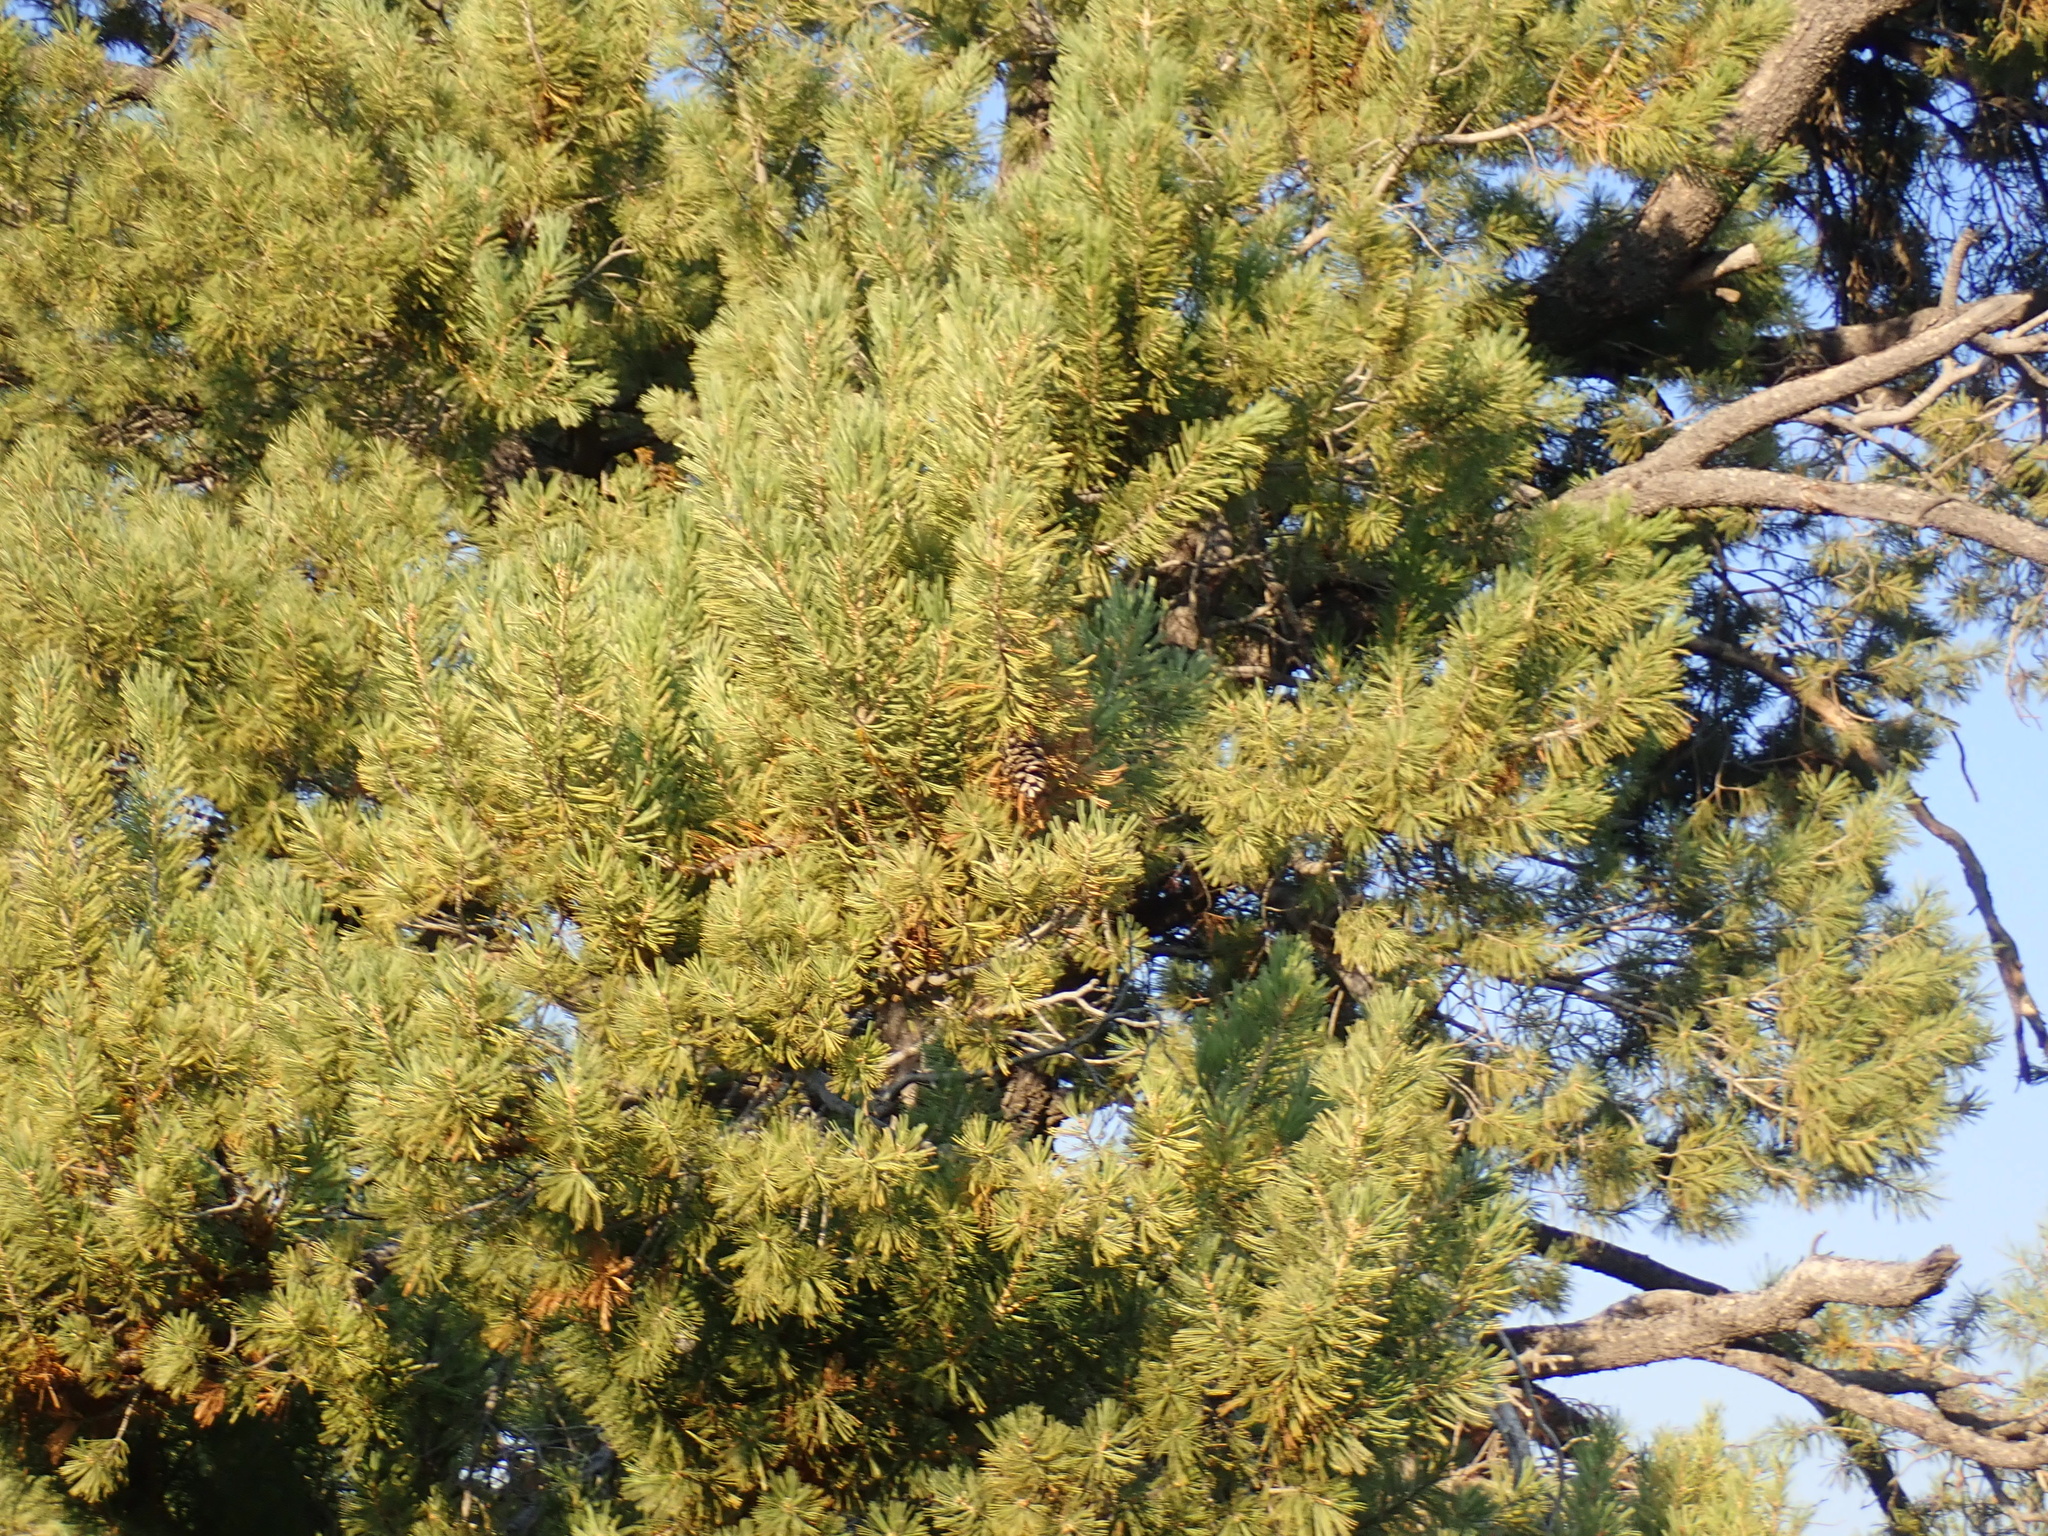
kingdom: Plantae
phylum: Tracheophyta
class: Pinopsida
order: Pinales
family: Pinaceae
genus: Pinus
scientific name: Pinus flexilis
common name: Limber pine
